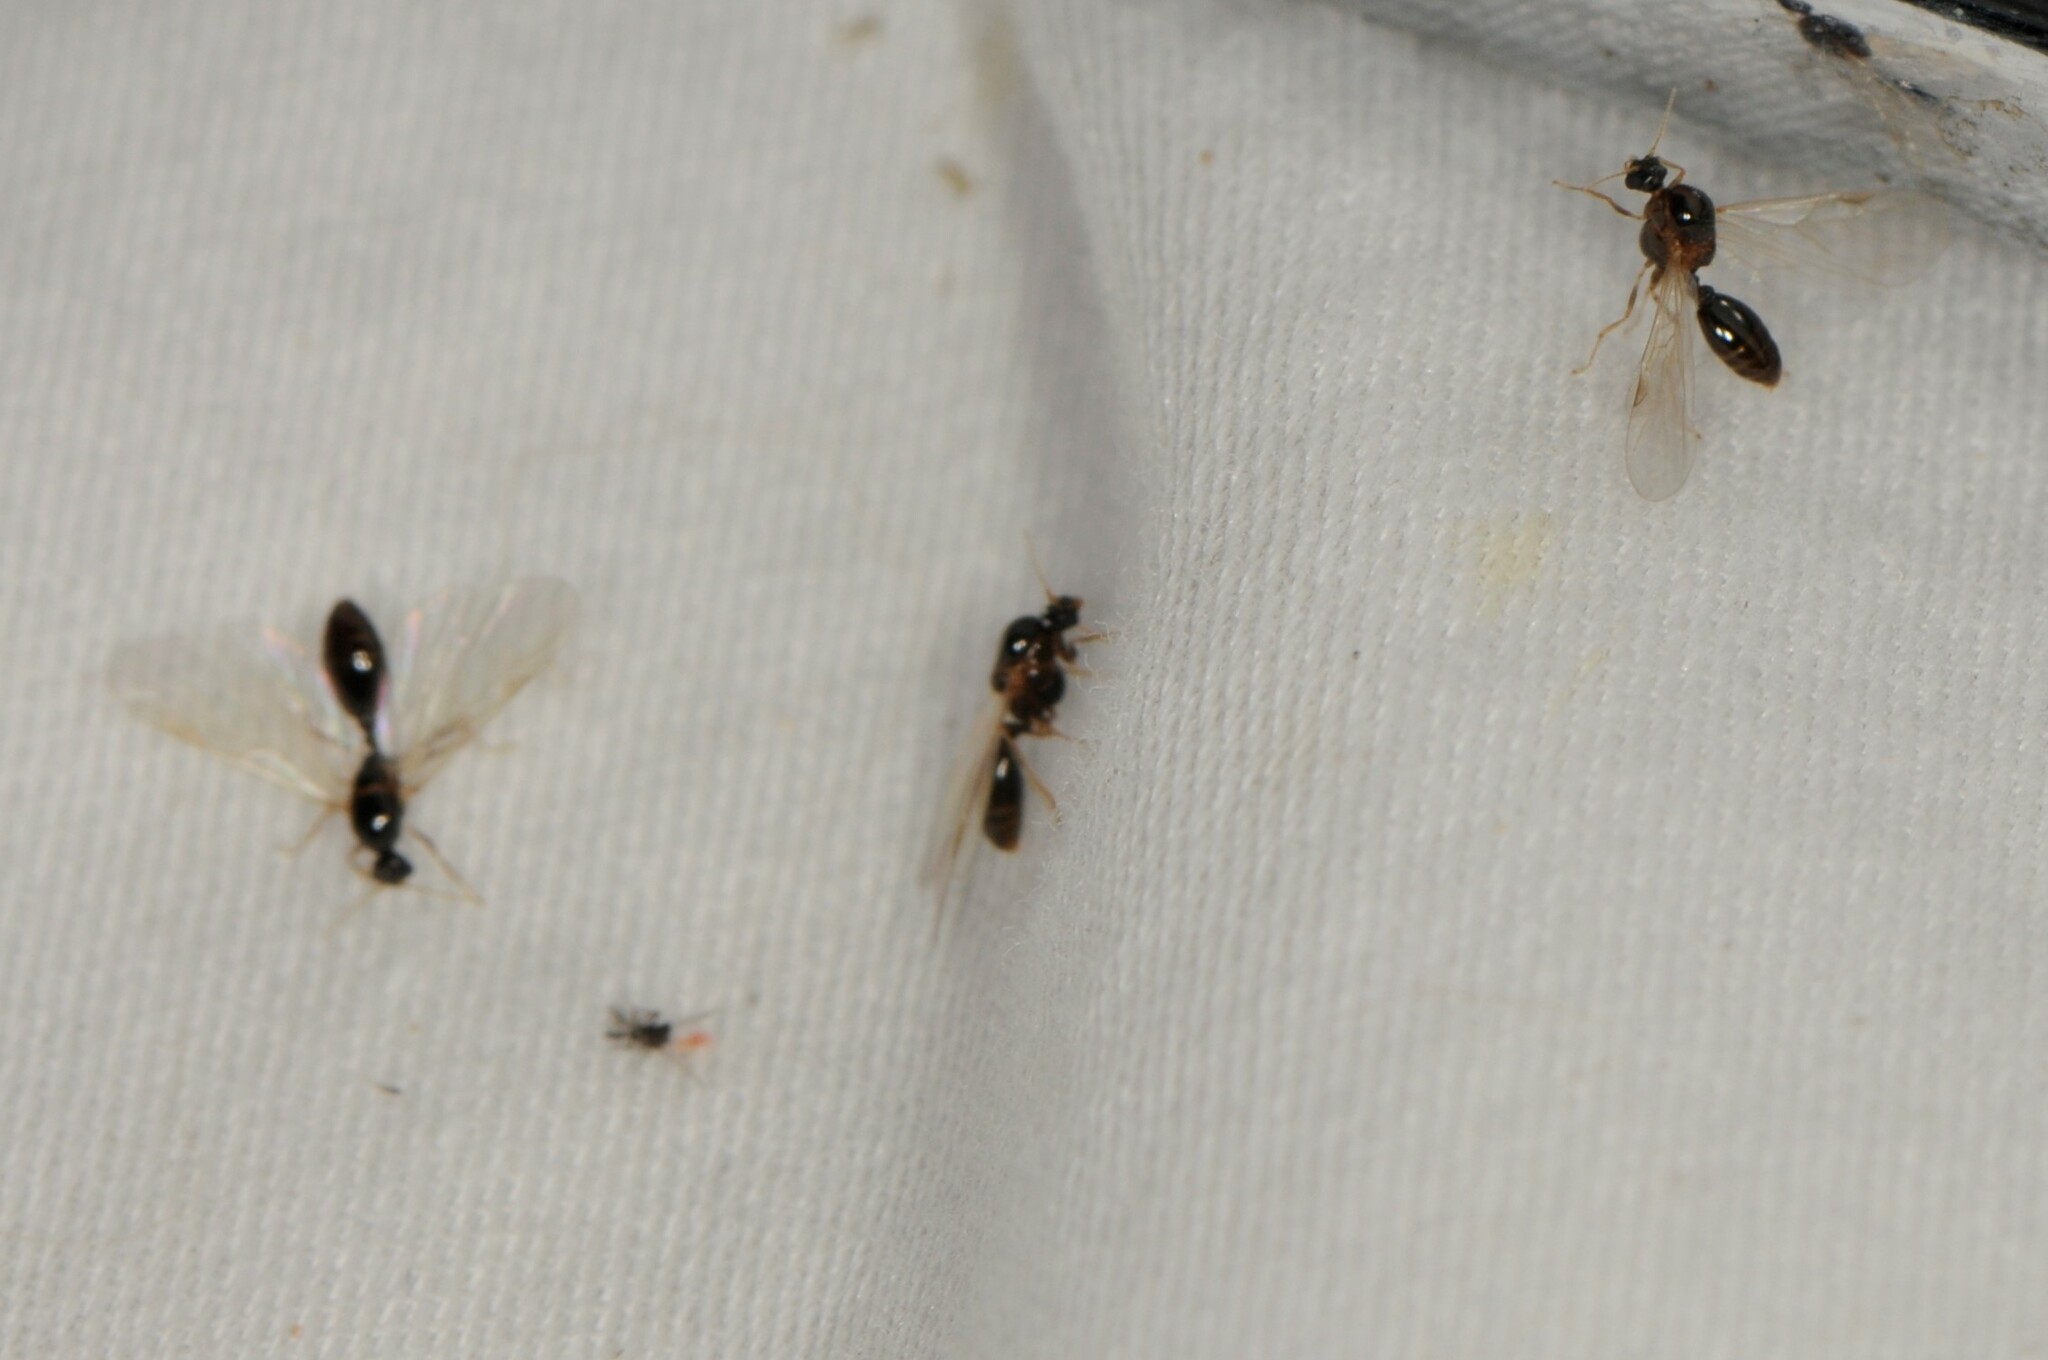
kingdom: Animalia
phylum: Arthropoda
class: Insecta
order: Hymenoptera
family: Formicidae
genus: Solenopsis
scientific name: Solenopsis
